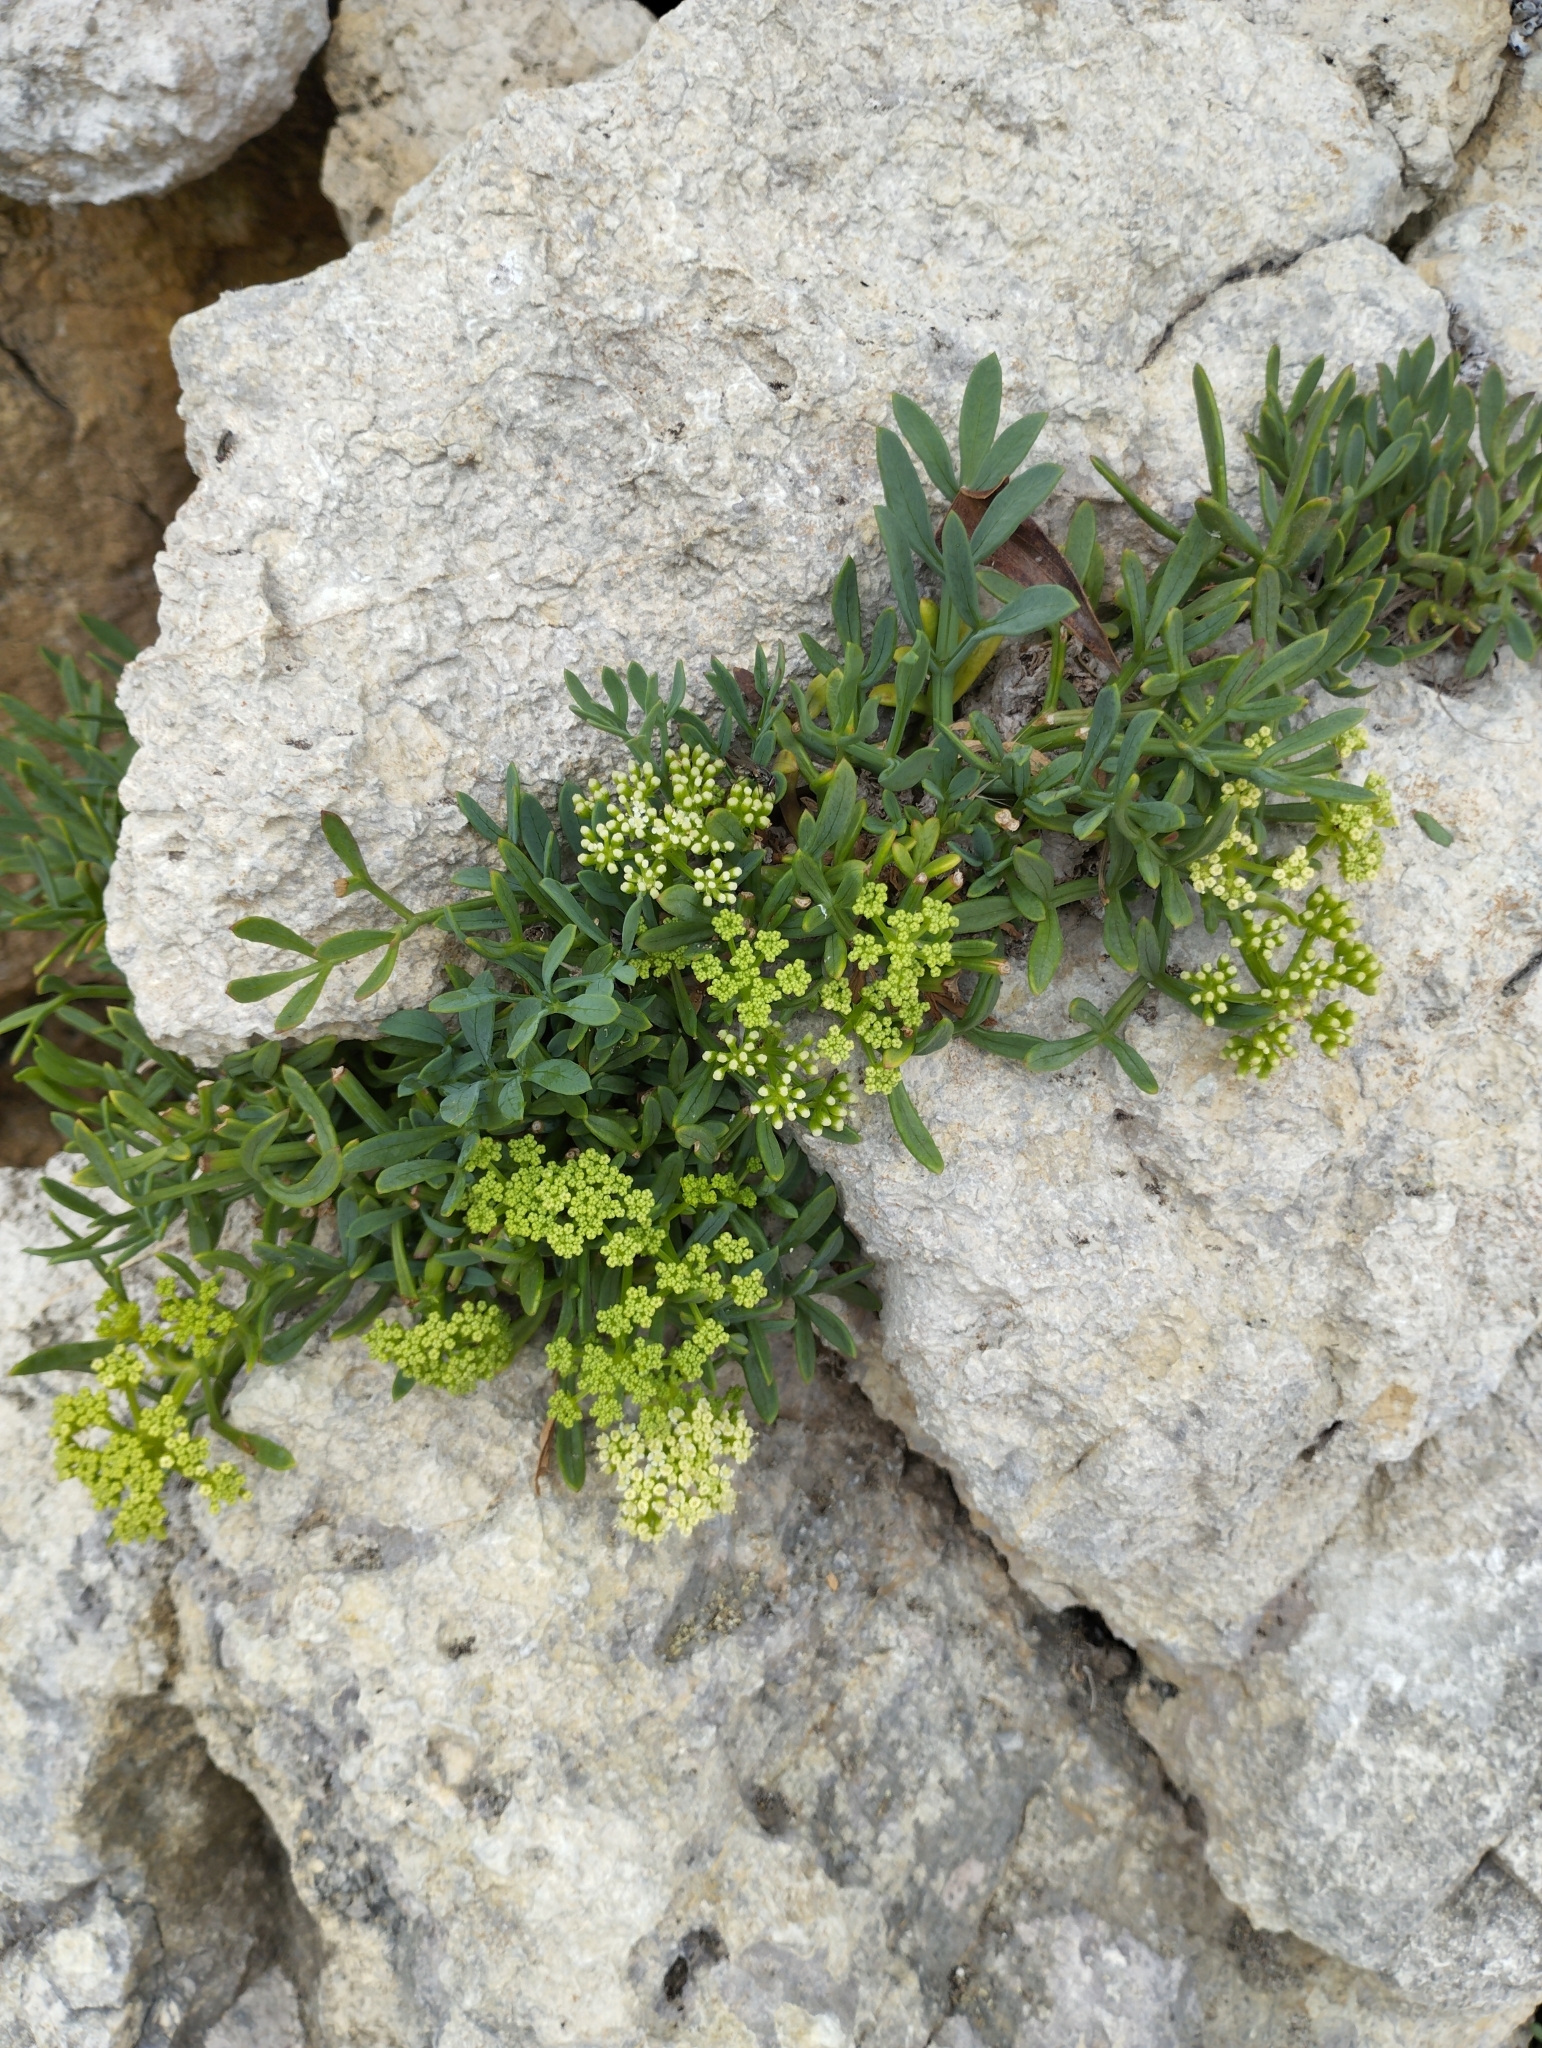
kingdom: Plantae
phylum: Tracheophyta
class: Magnoliopsida
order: Apiales
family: Apiaceae
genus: Crithmum
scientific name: Crithmum maritimum
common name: Rock samphire
